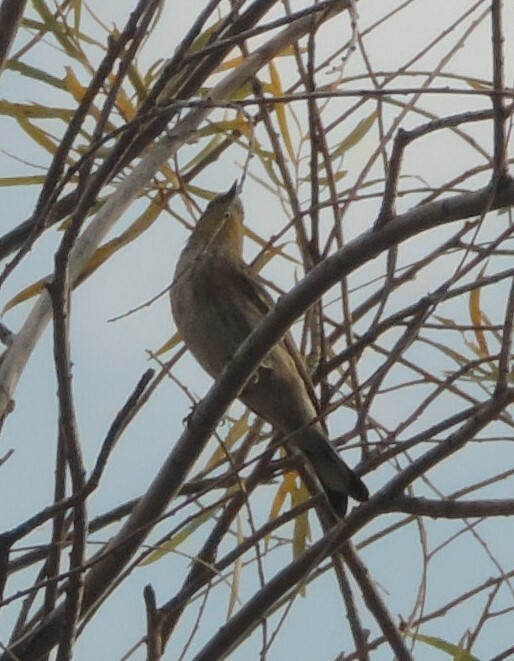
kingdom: Animalia
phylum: Chordata
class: Aves
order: Passeriformes
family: Parulidae
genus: Setophaga
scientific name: Setophaga coronata
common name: Myrtle warbler
